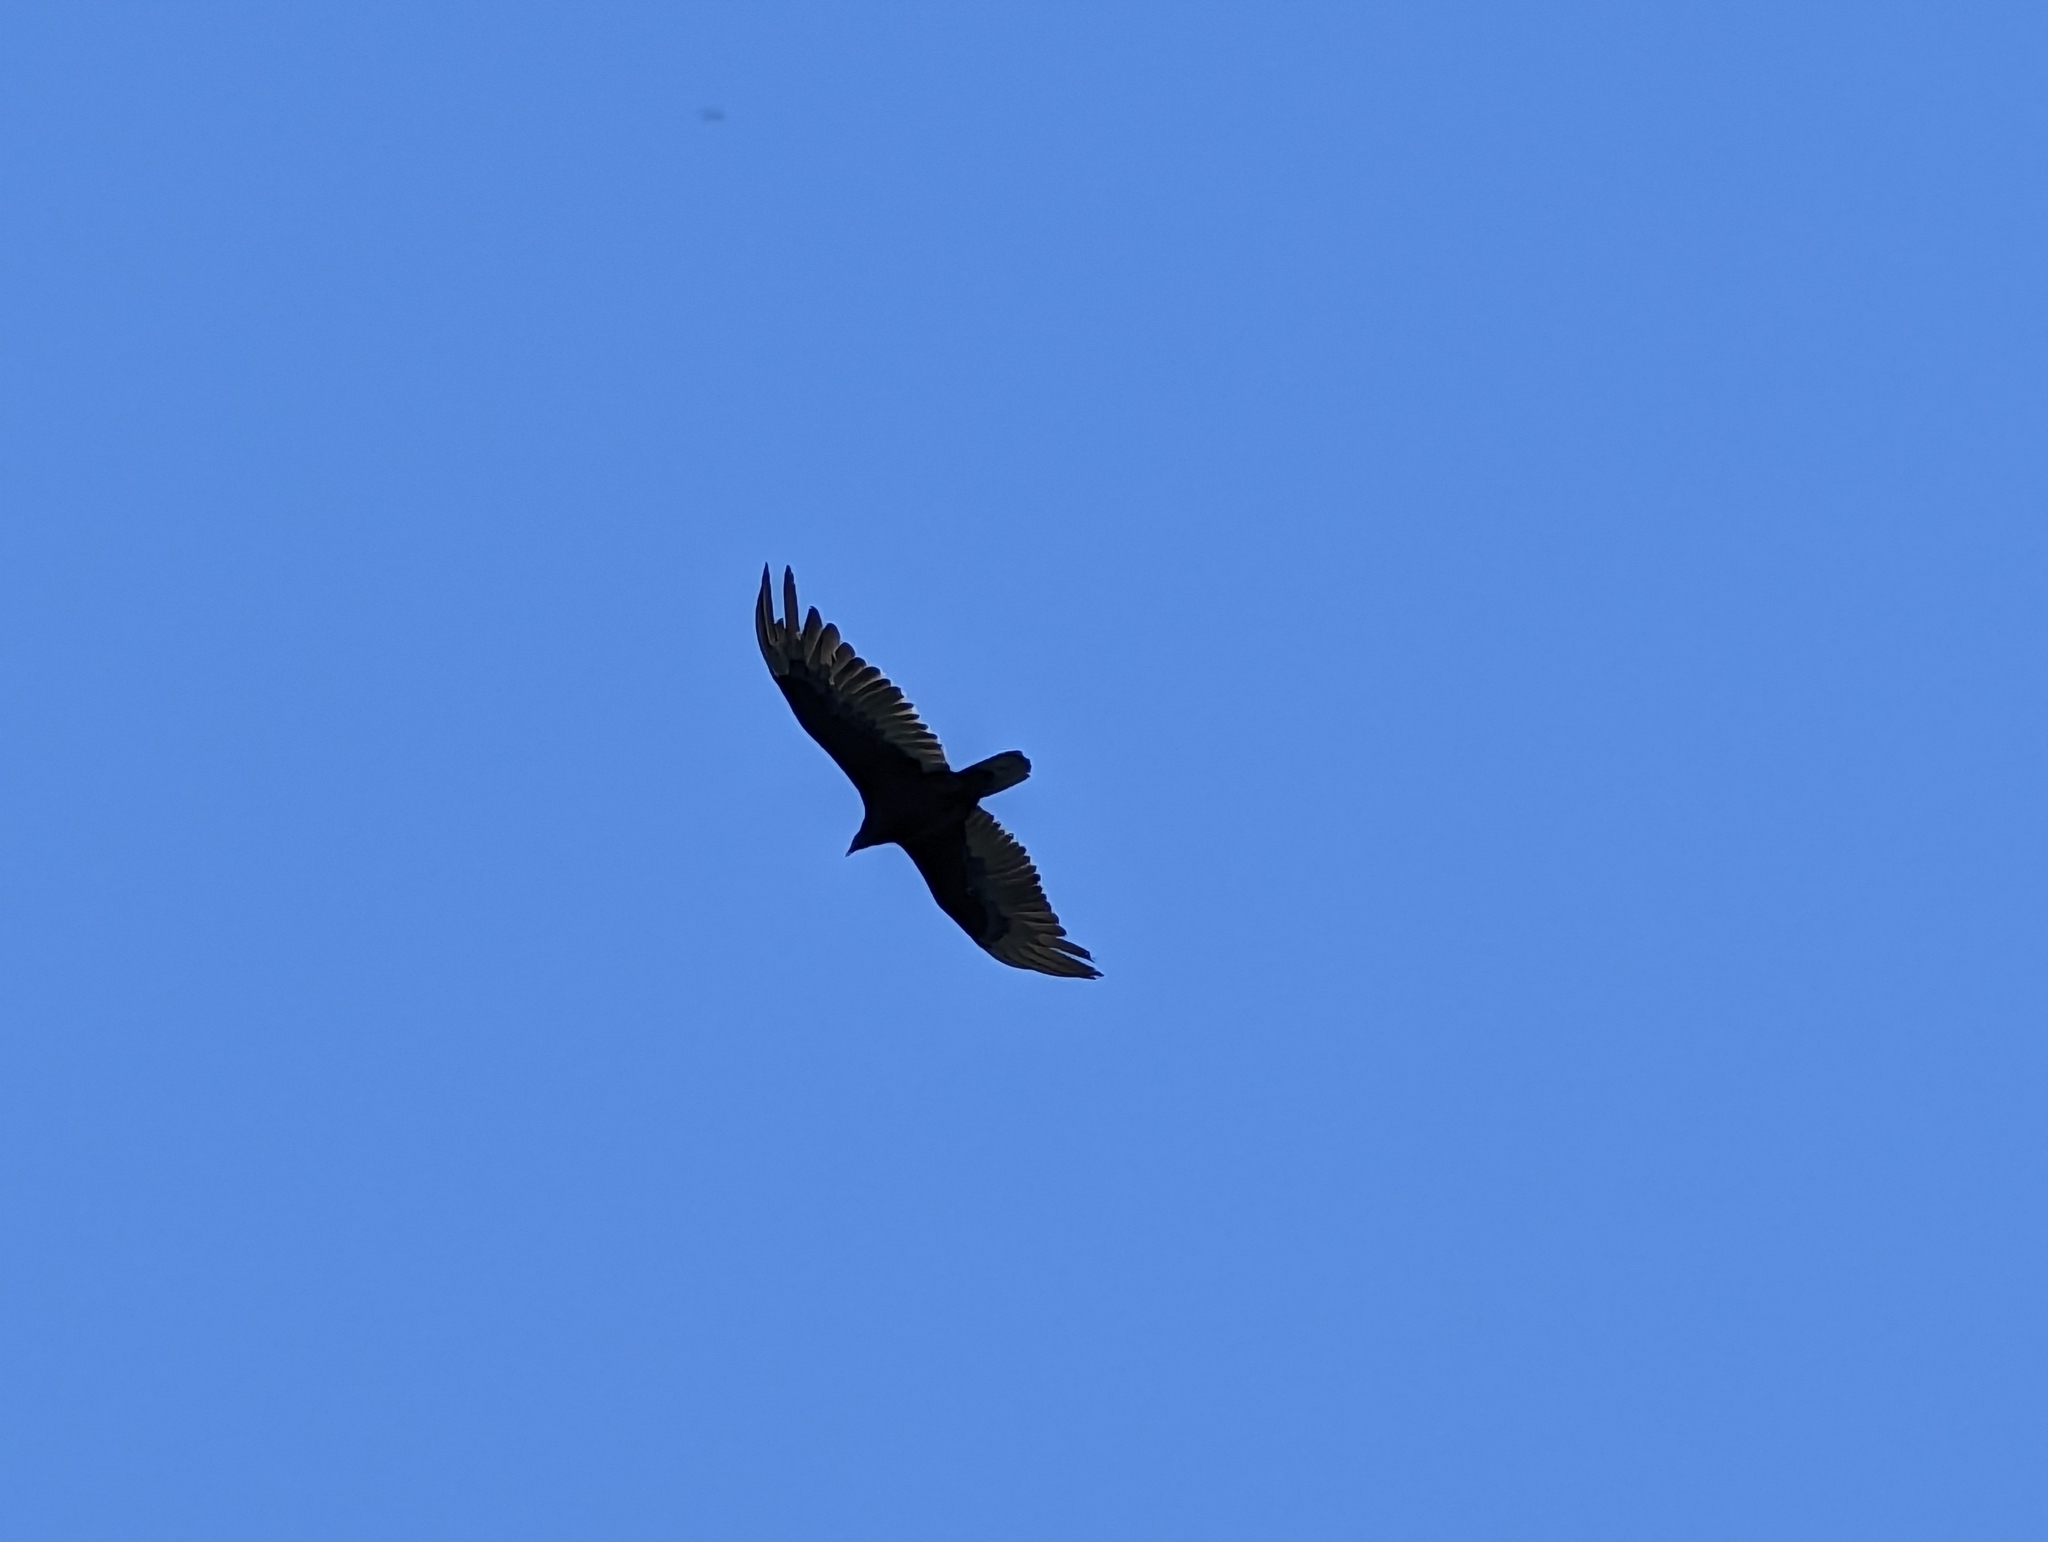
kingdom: Animalia
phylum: Chordata
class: Aves
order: Accipitriformes
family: Cathartidae
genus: Cathartes
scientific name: Cathartes aura
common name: Turkey vulture
